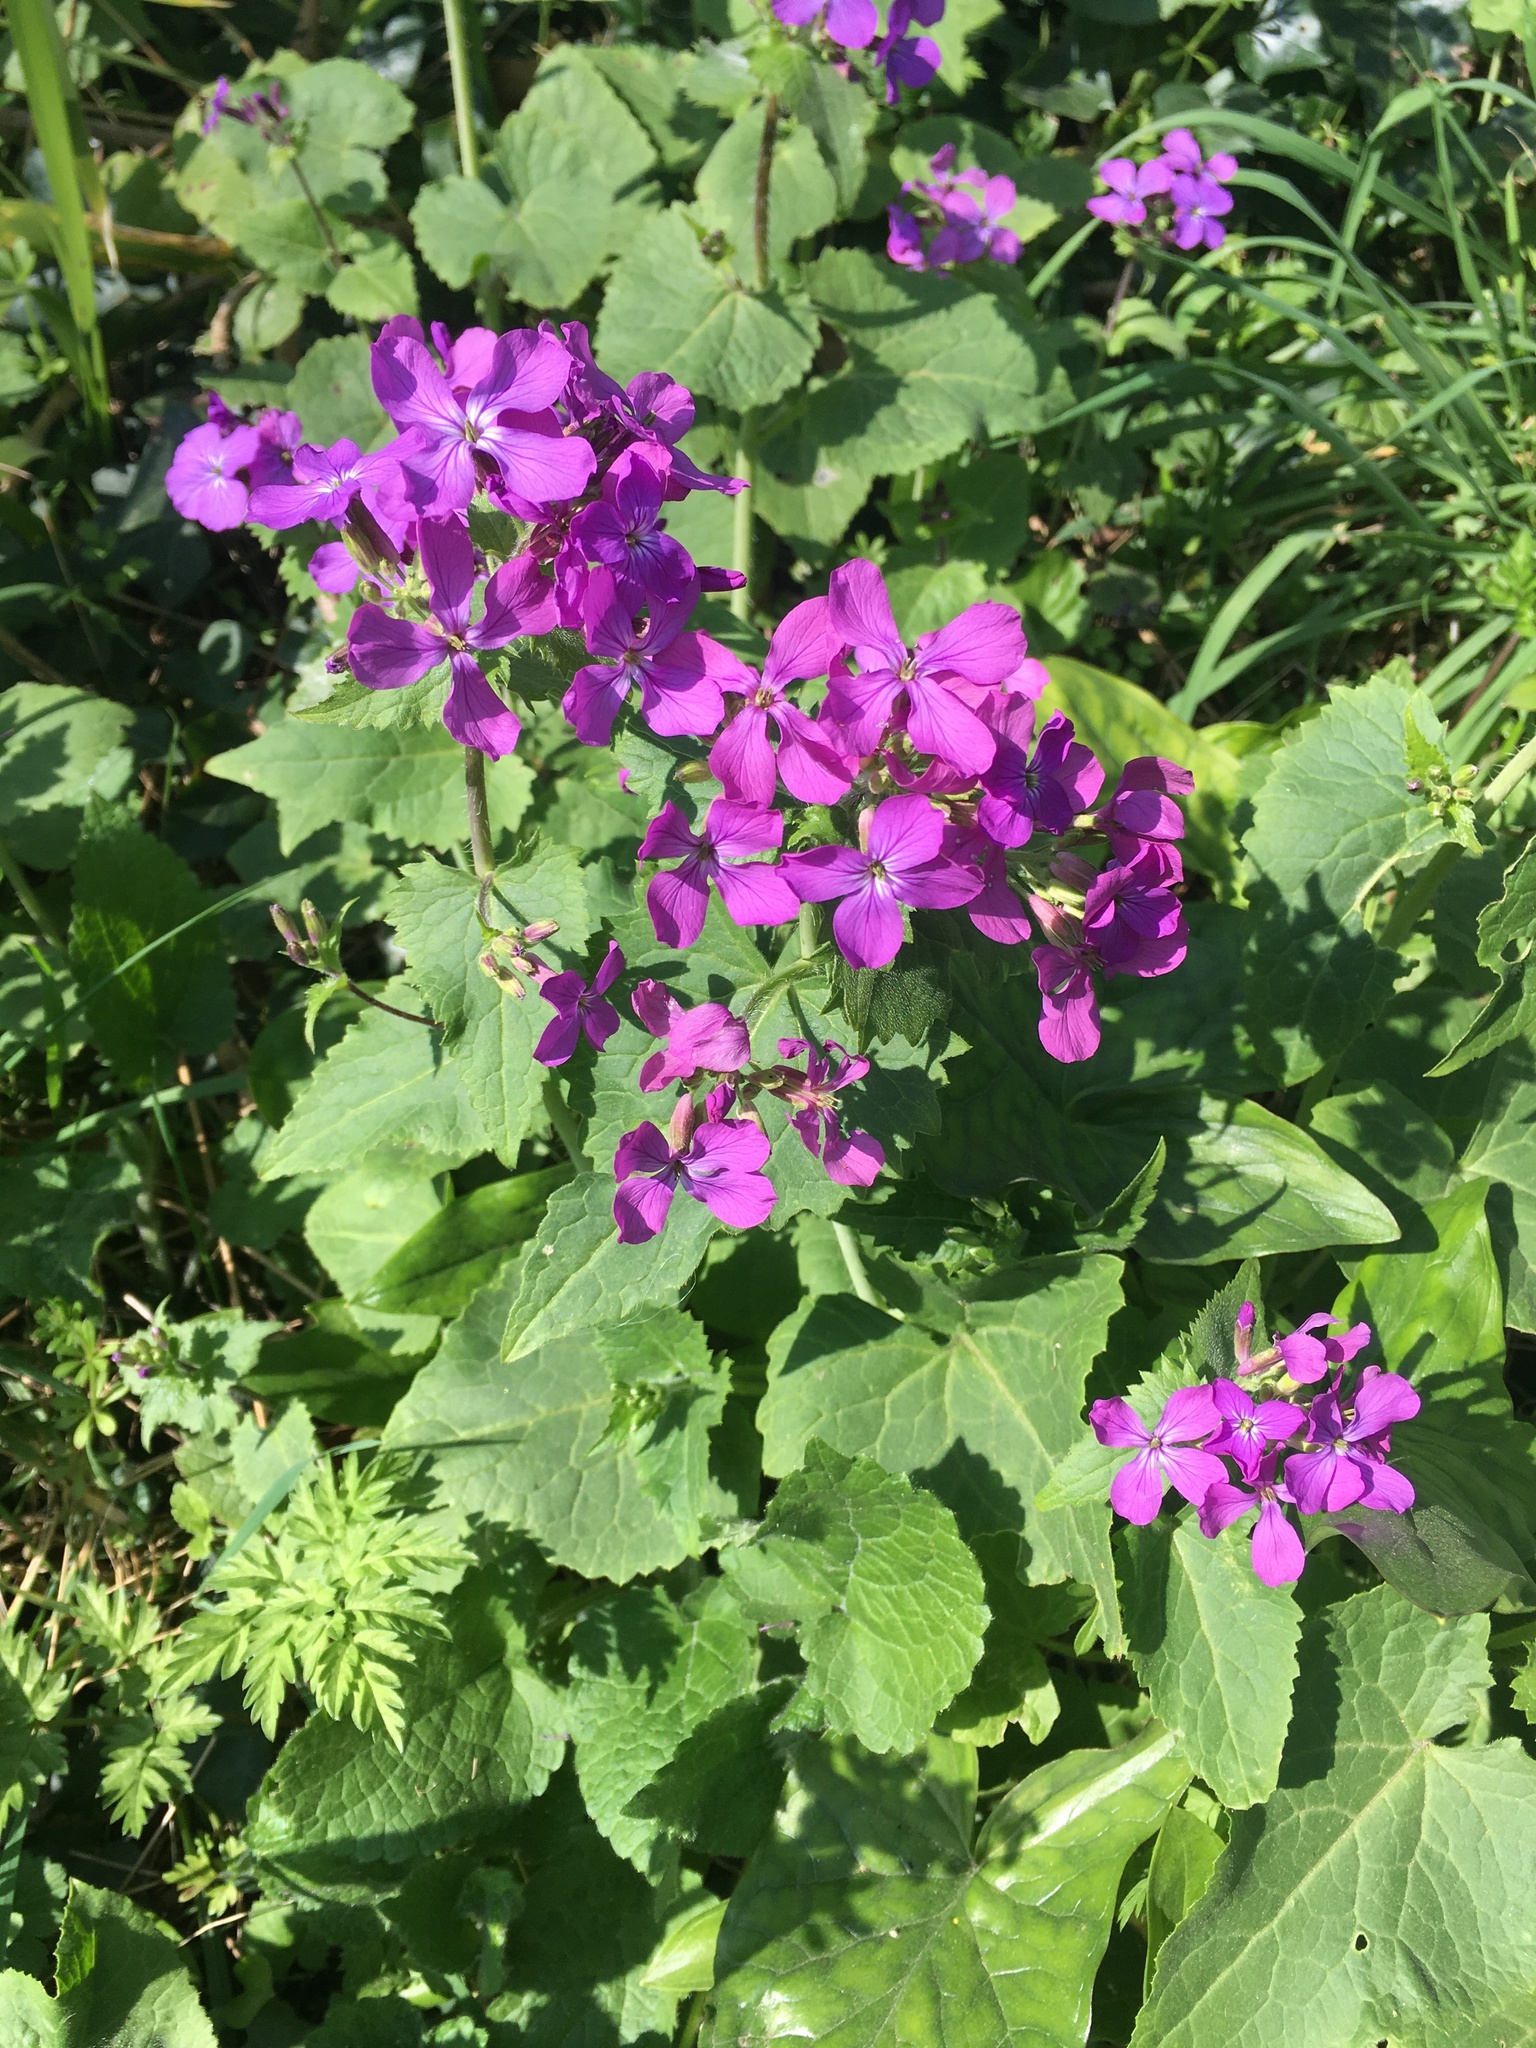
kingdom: Plantae
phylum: Tracheophyta
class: Magnoliopsida
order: Brassicales
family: Brassicaceae
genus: Lunaria
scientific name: Lunaria annua
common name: Honesty
